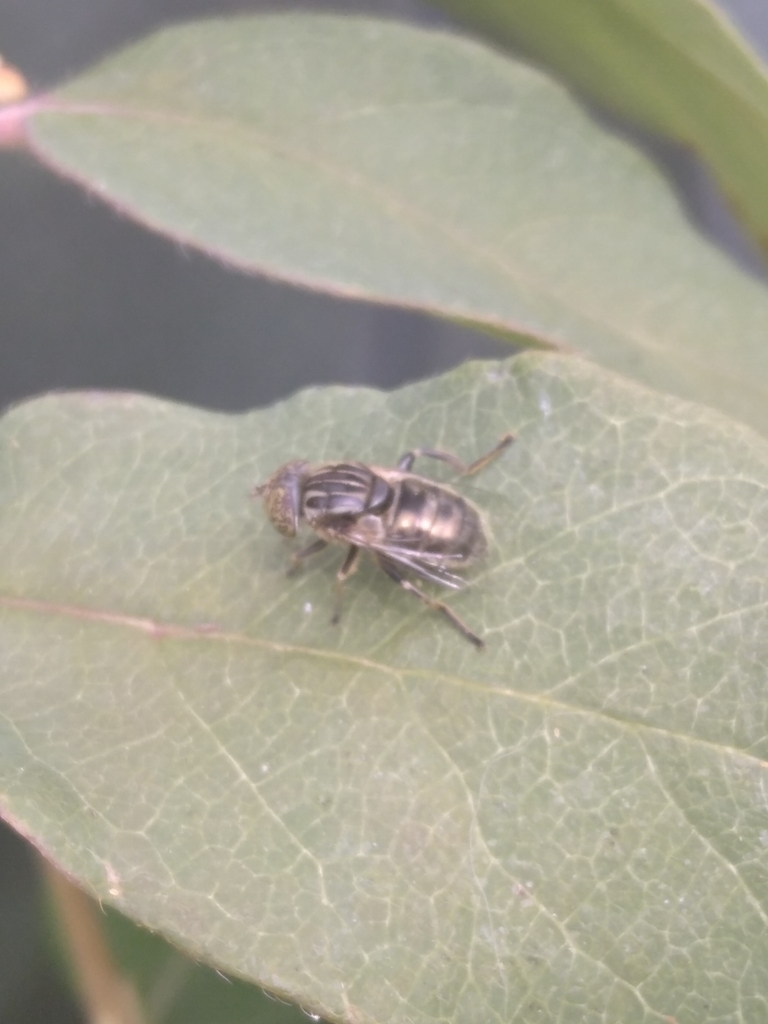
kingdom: Animalia
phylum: Arthropoda
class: Insecta
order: Diptera
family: Syrphidae
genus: Eristalinus
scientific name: Eristalinus sepulchralis
